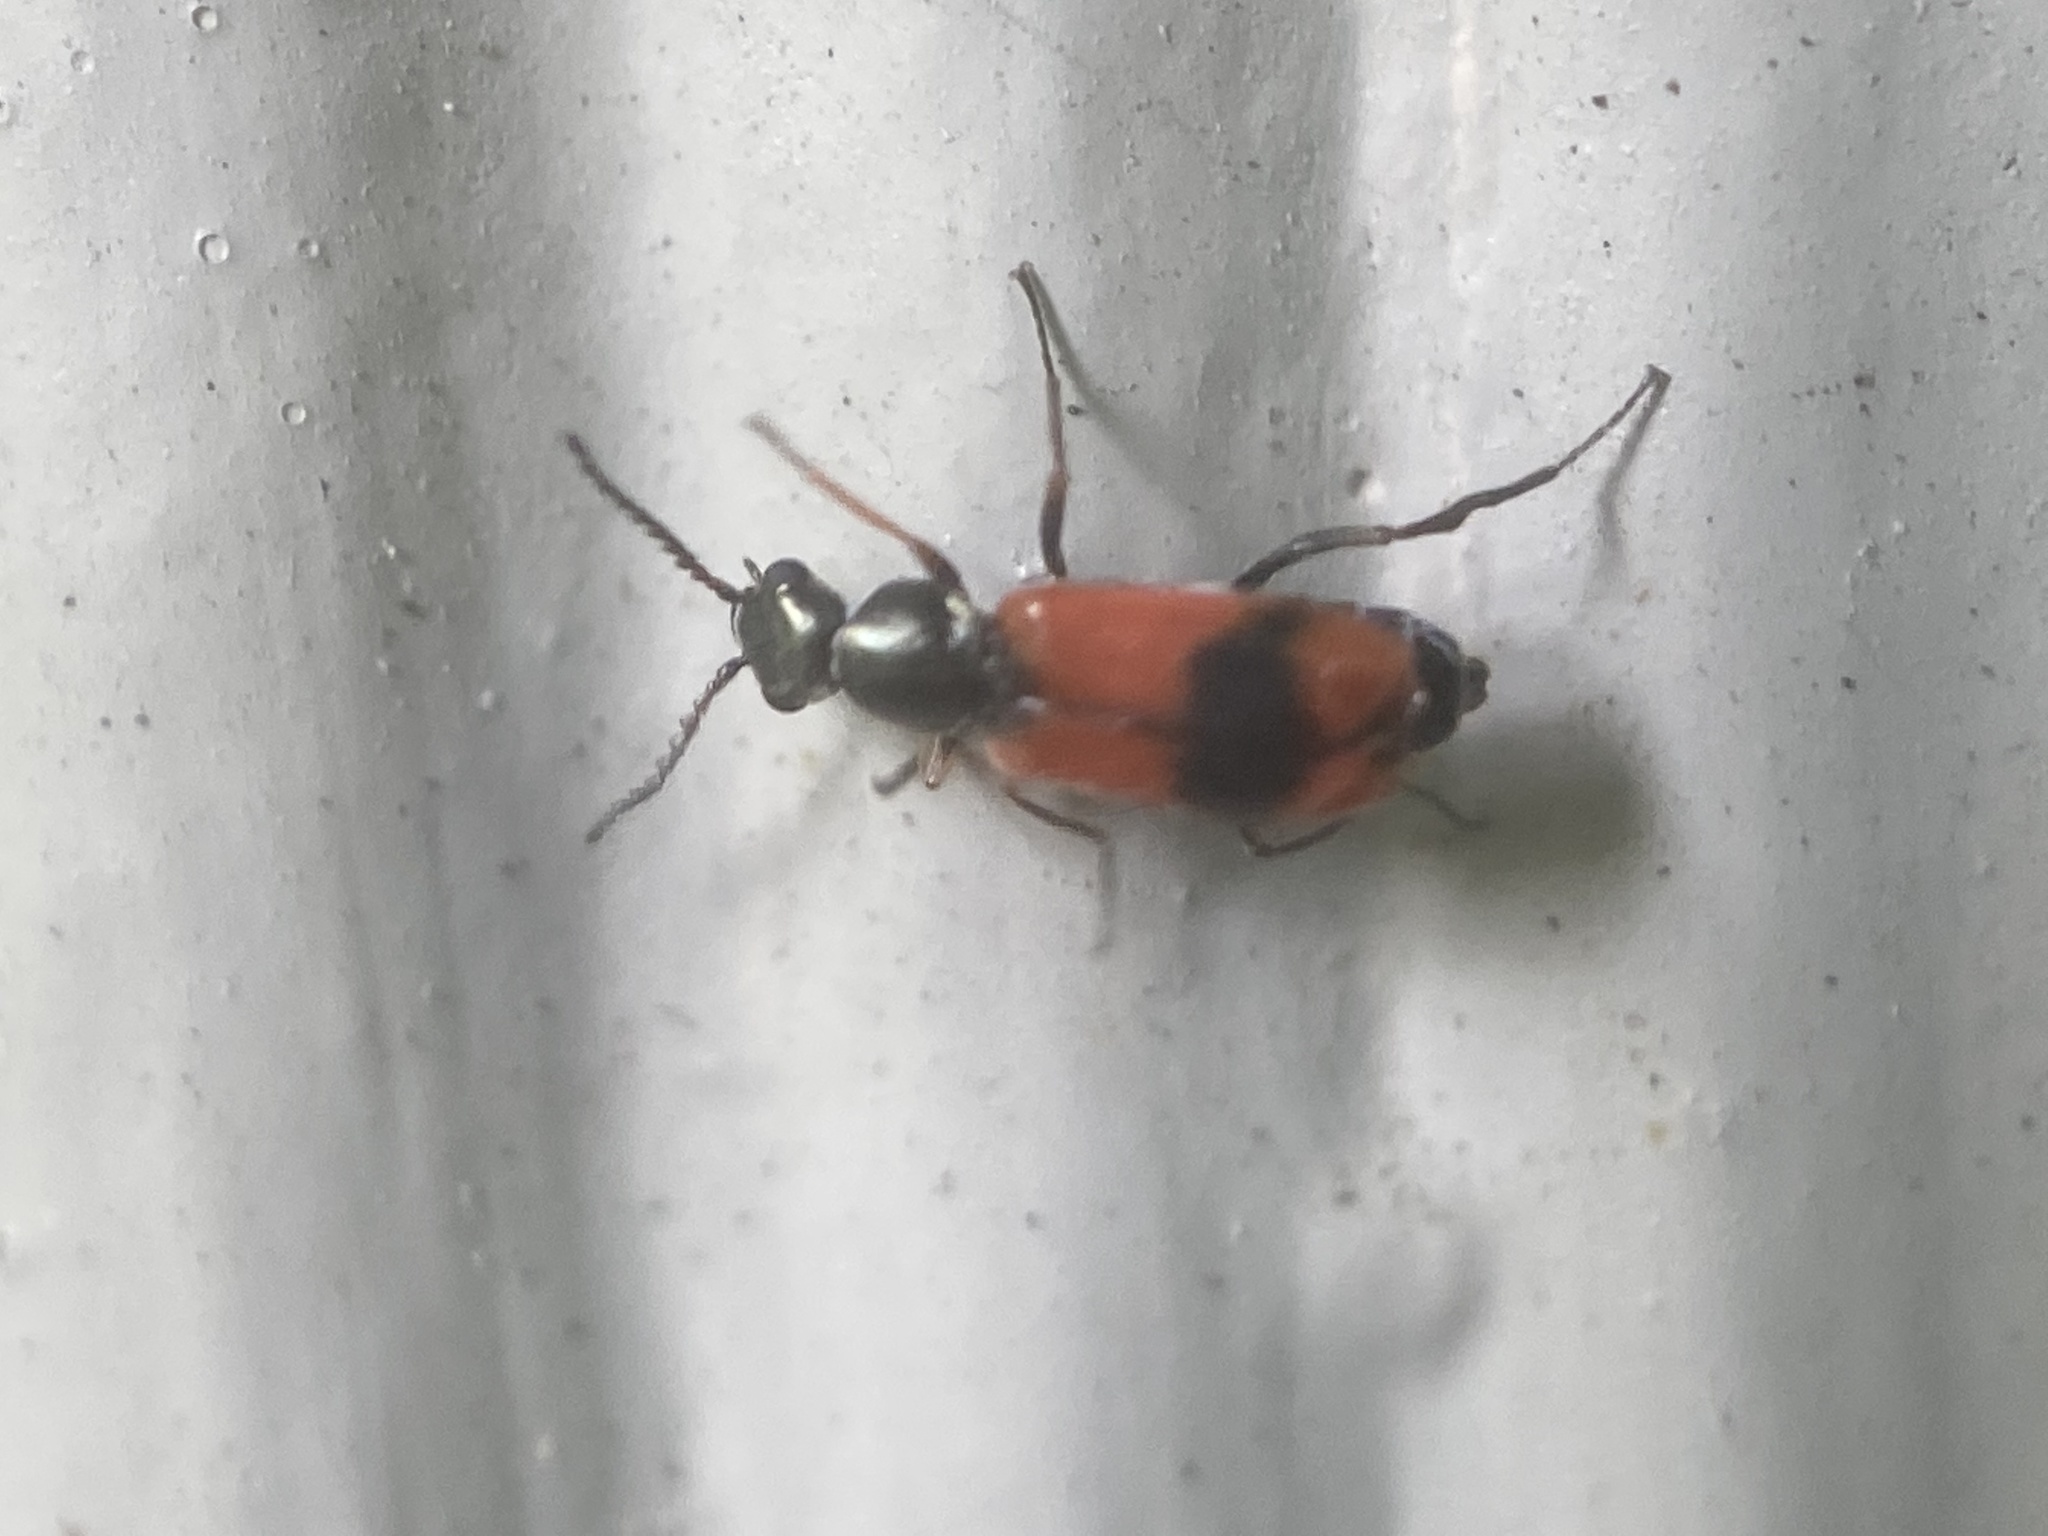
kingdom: Animalia
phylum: Arthropoda
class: Insecta
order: Coleoptera
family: Melyridae
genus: Anthocomus
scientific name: Anthocomus equestris
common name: Black-banded soft-winged flower beetle
